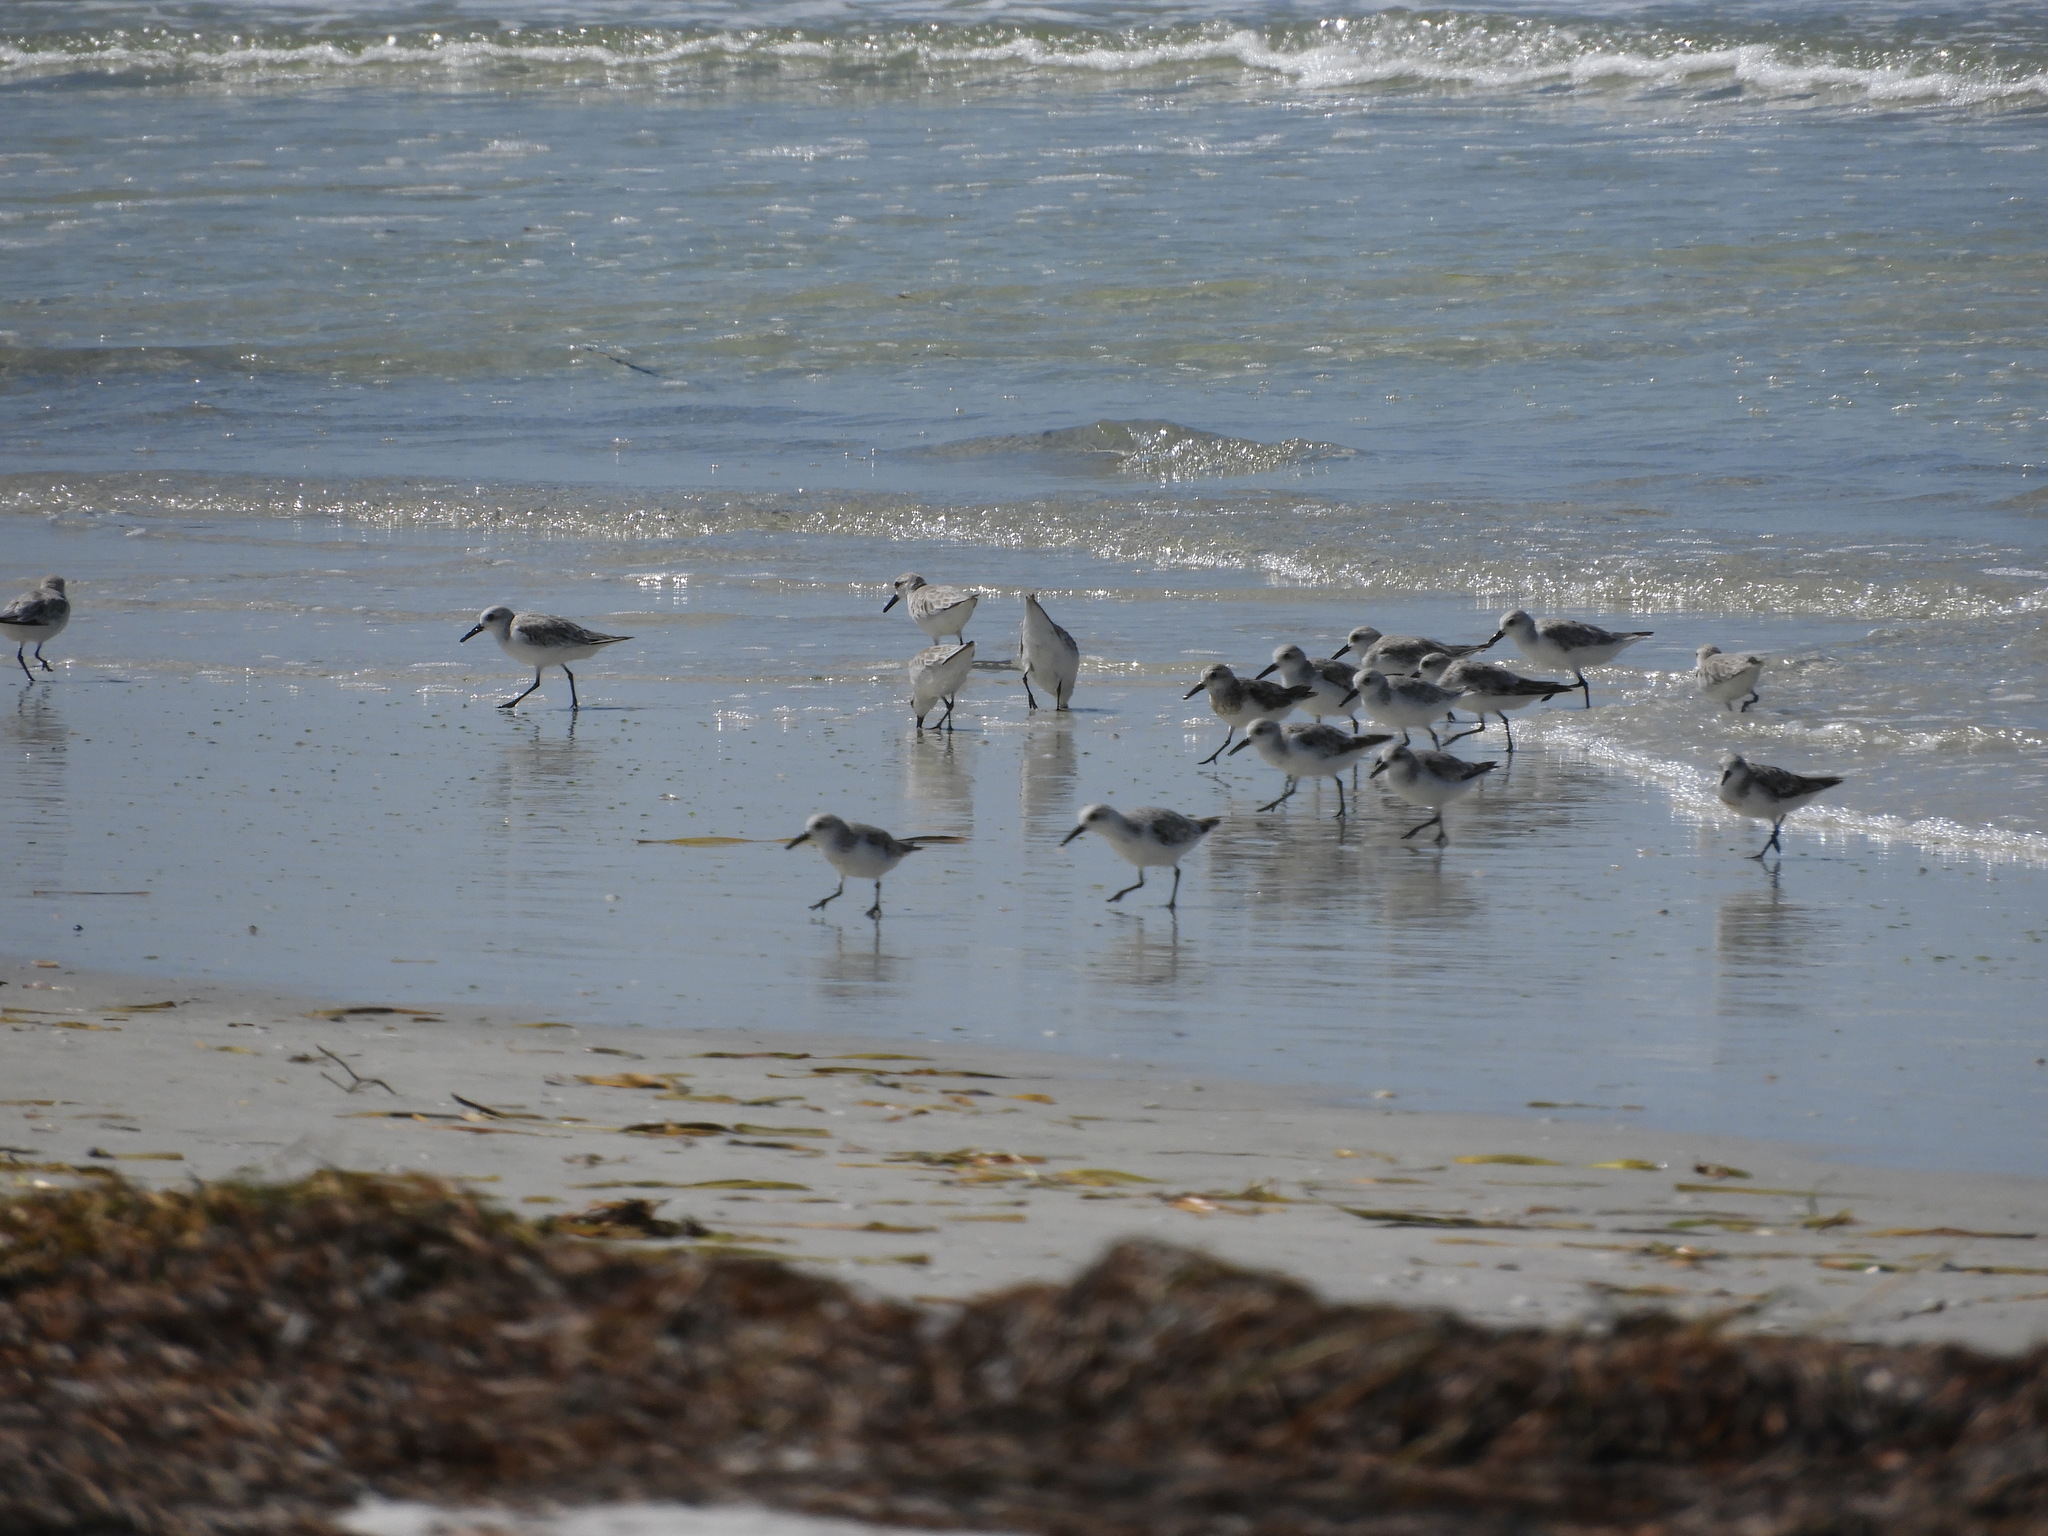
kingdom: Animalia
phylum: Chordata
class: Aves
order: Charadriiformes
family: Scolopacidae
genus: Calidris
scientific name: Calidris alba
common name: Sanderling
